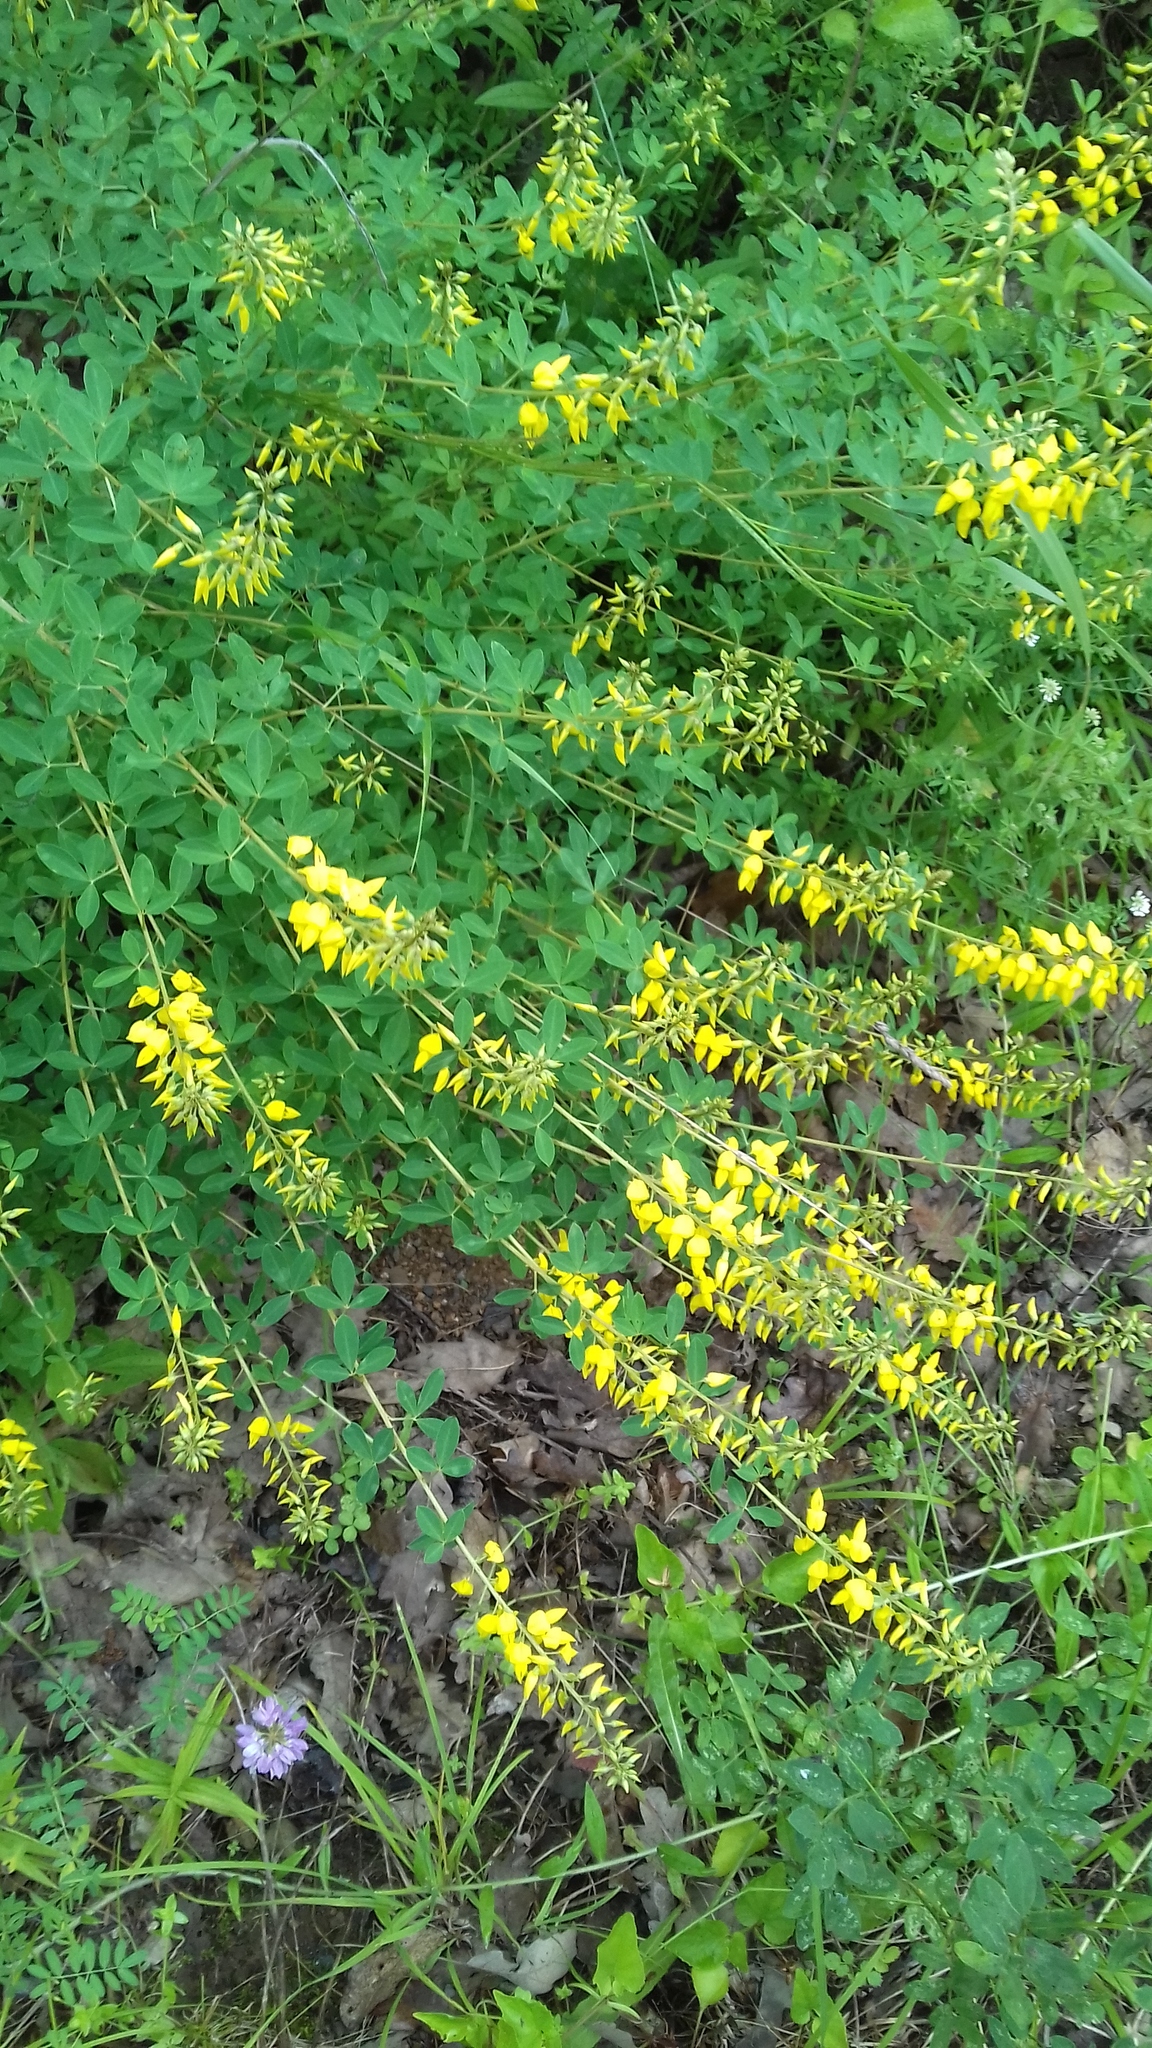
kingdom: Plantae
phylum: Tracheophyta
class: Magnoliopsida
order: Fabales
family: Fabaceae
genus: Cytisus
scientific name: Cytisus nigricans
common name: Black broom
